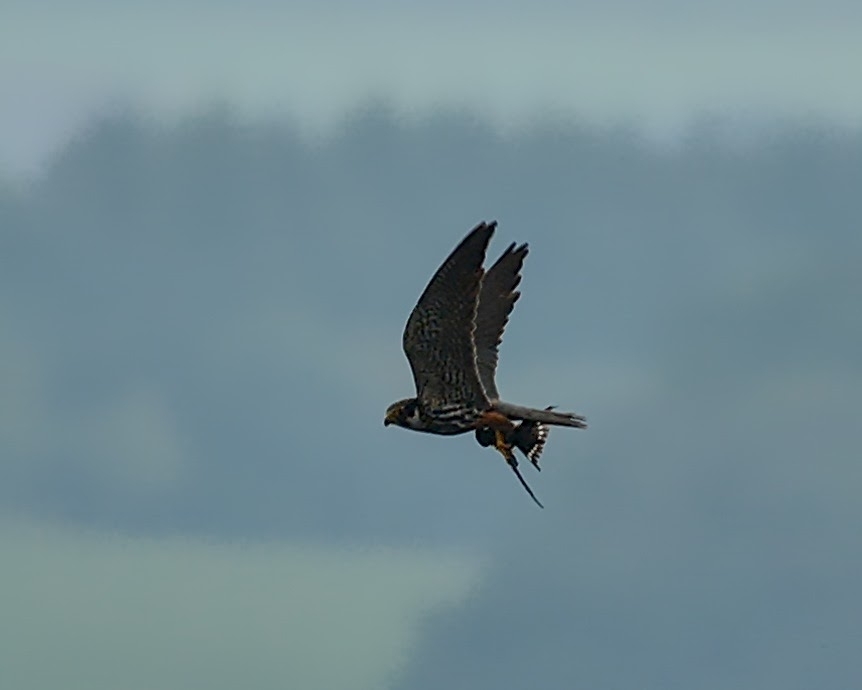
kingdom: Animalia
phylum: Chordata
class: Aves
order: Falconiformes
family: Falconidae
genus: Falco
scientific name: Falco subbuteo
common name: Eurasian hobby
